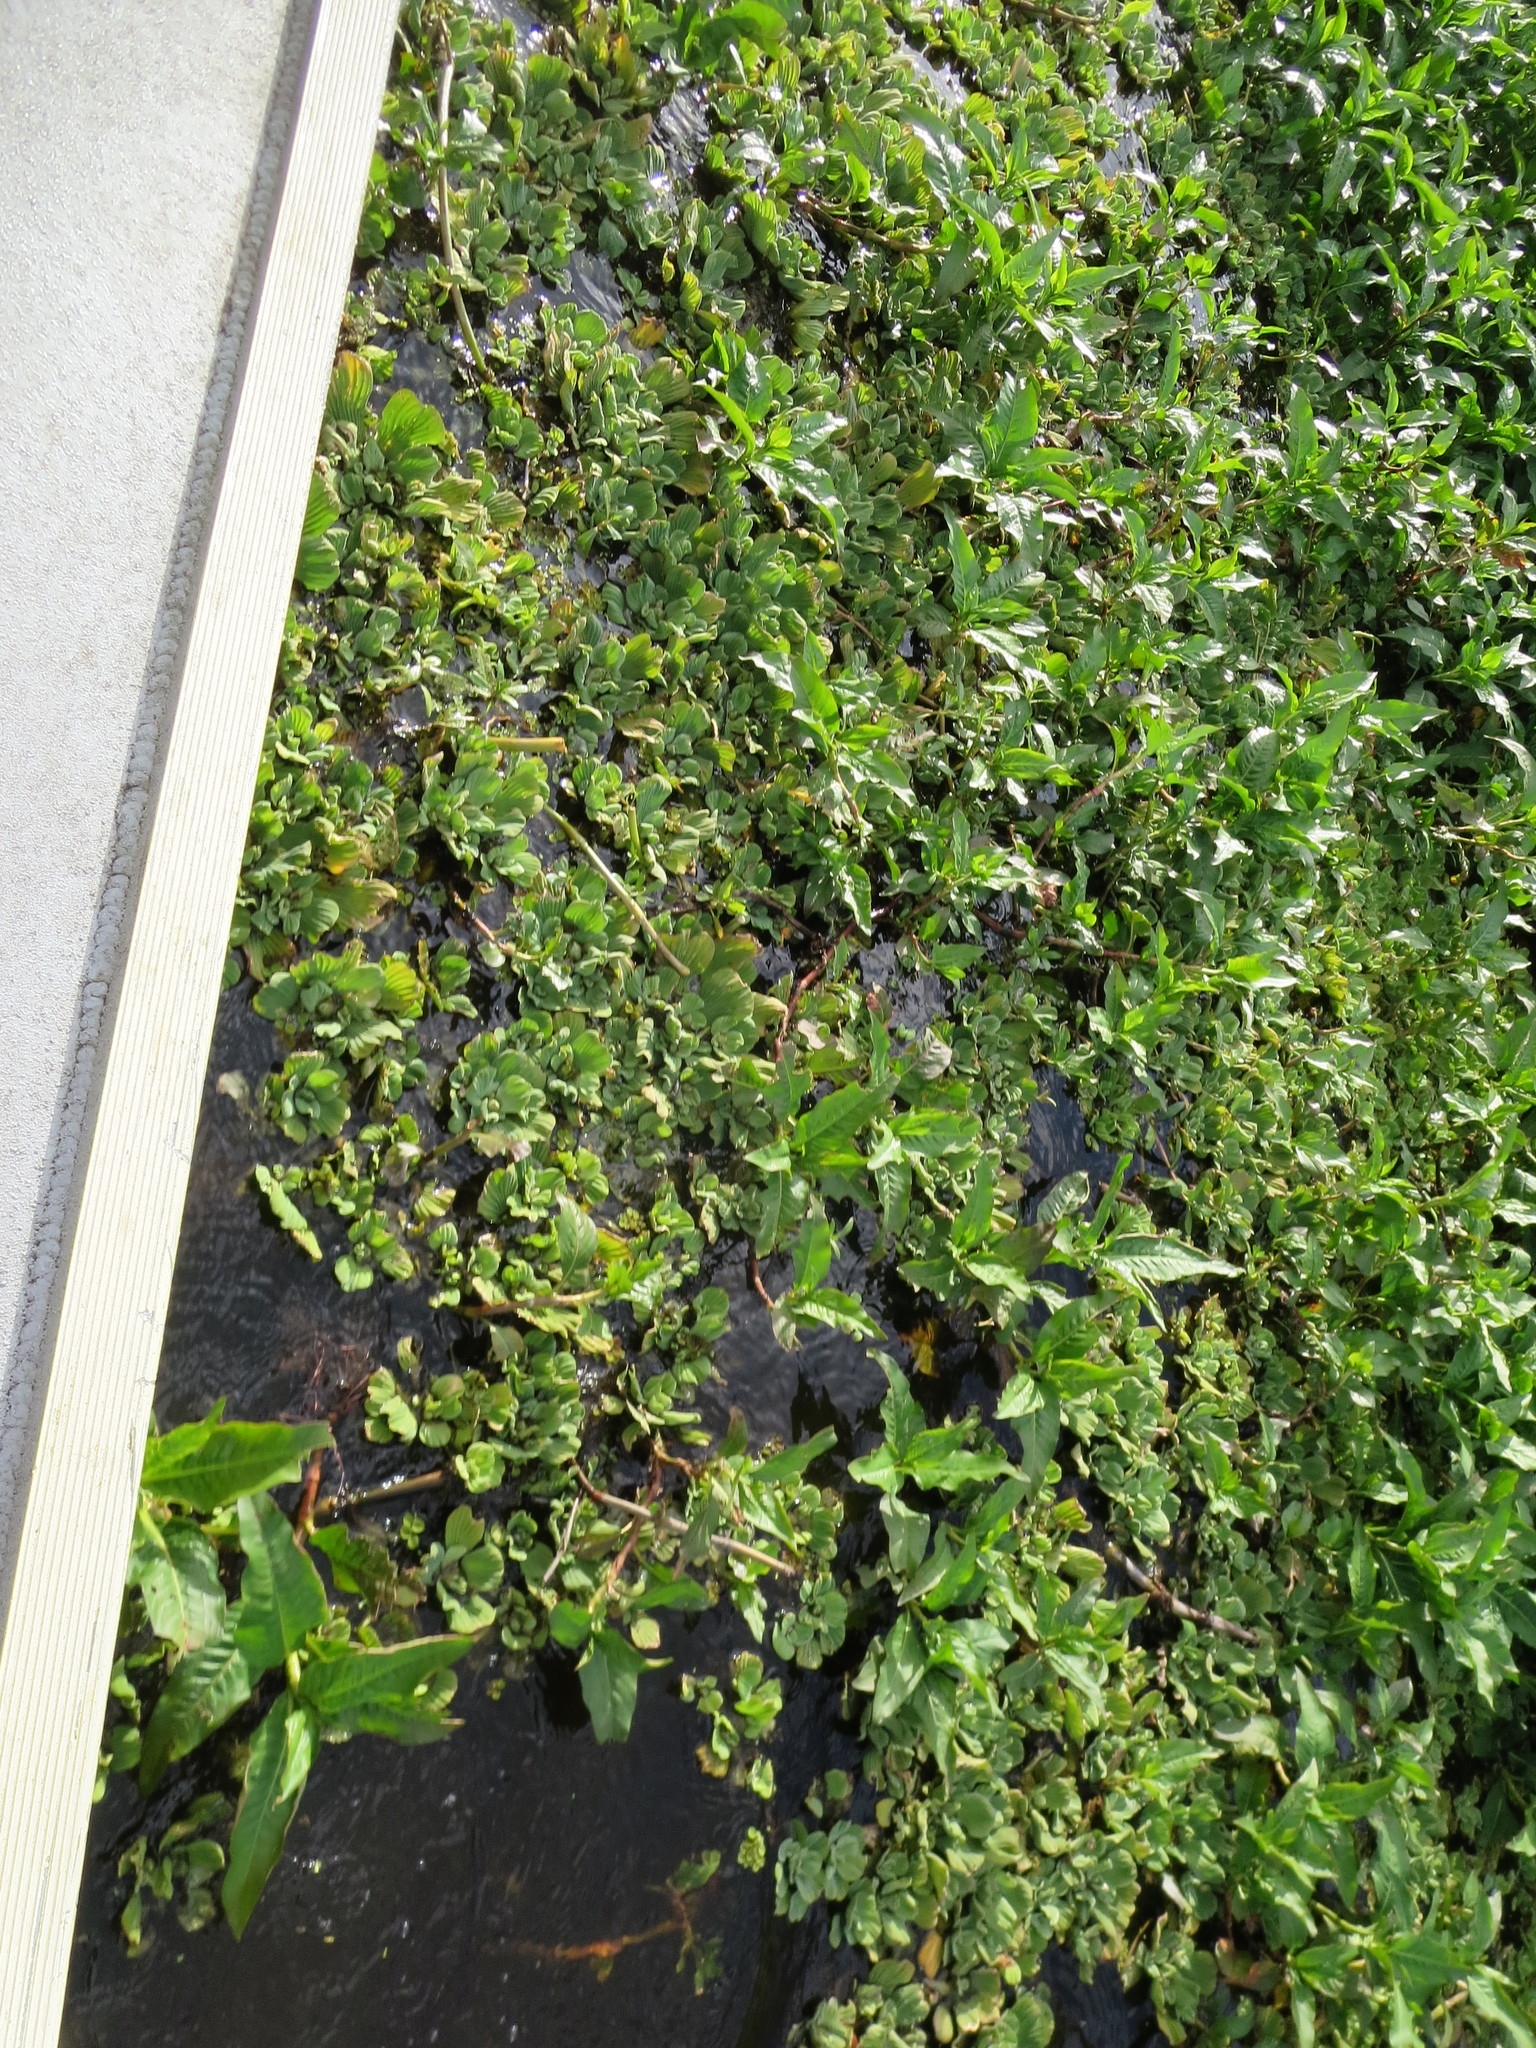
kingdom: Plantae
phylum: Tracheophyta
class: Liliopsida
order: Alismatales
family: Araceae
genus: Pistia
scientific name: Pistia stratiotes
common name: Water lettuce
